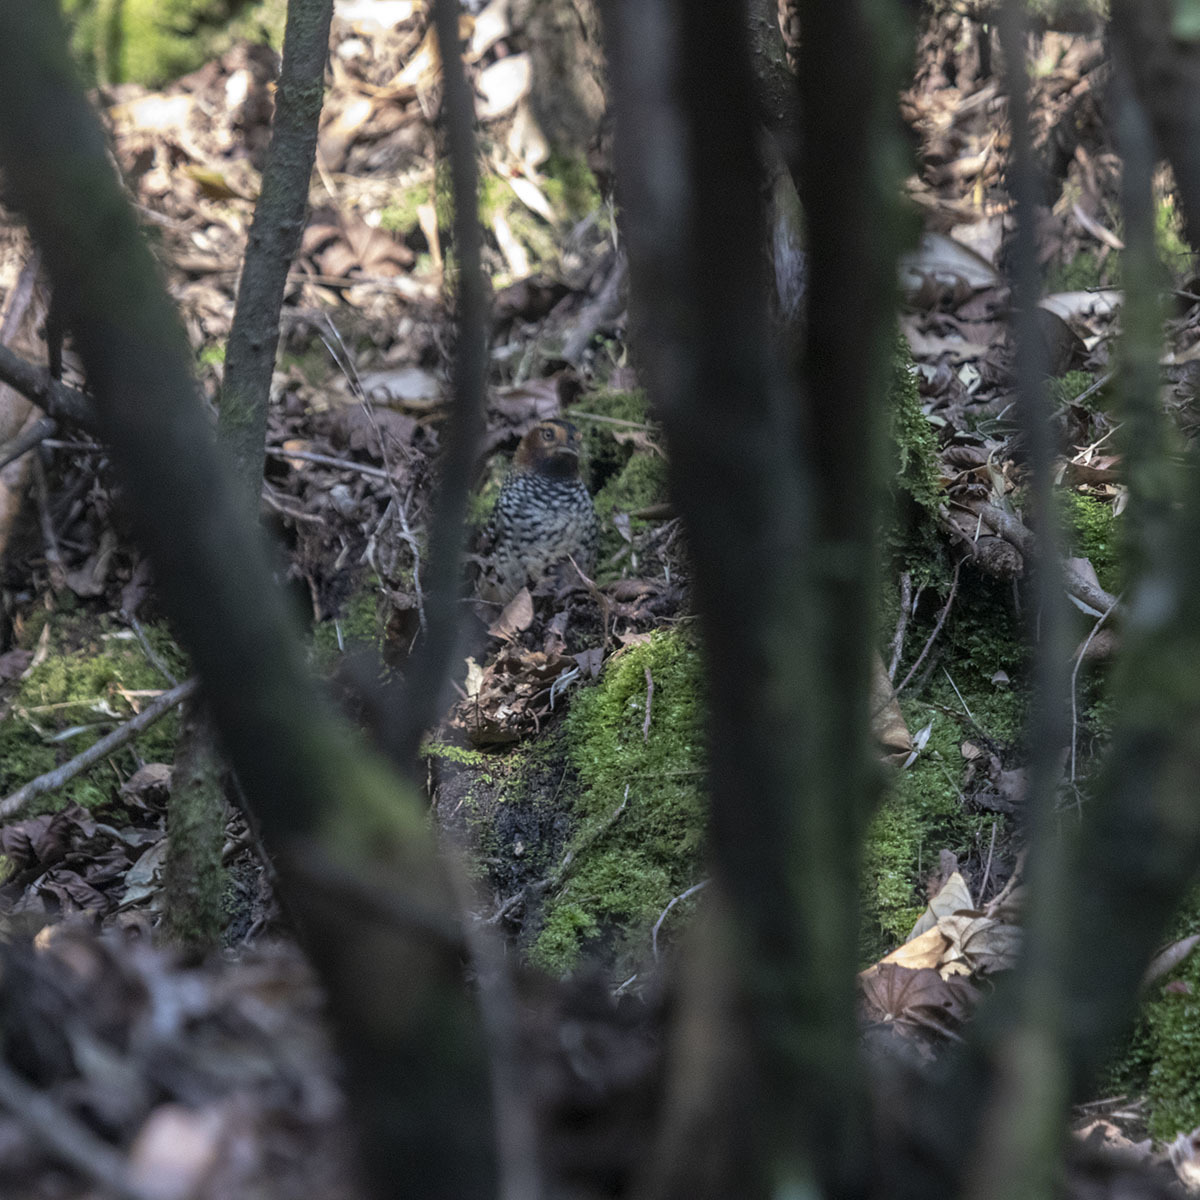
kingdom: Animalia
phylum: Chordata
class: Aves
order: Passeriformes
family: Leiothrichidae
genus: Garrulax
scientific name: Garrulax ocellatus
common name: Spotted laughingthrush
